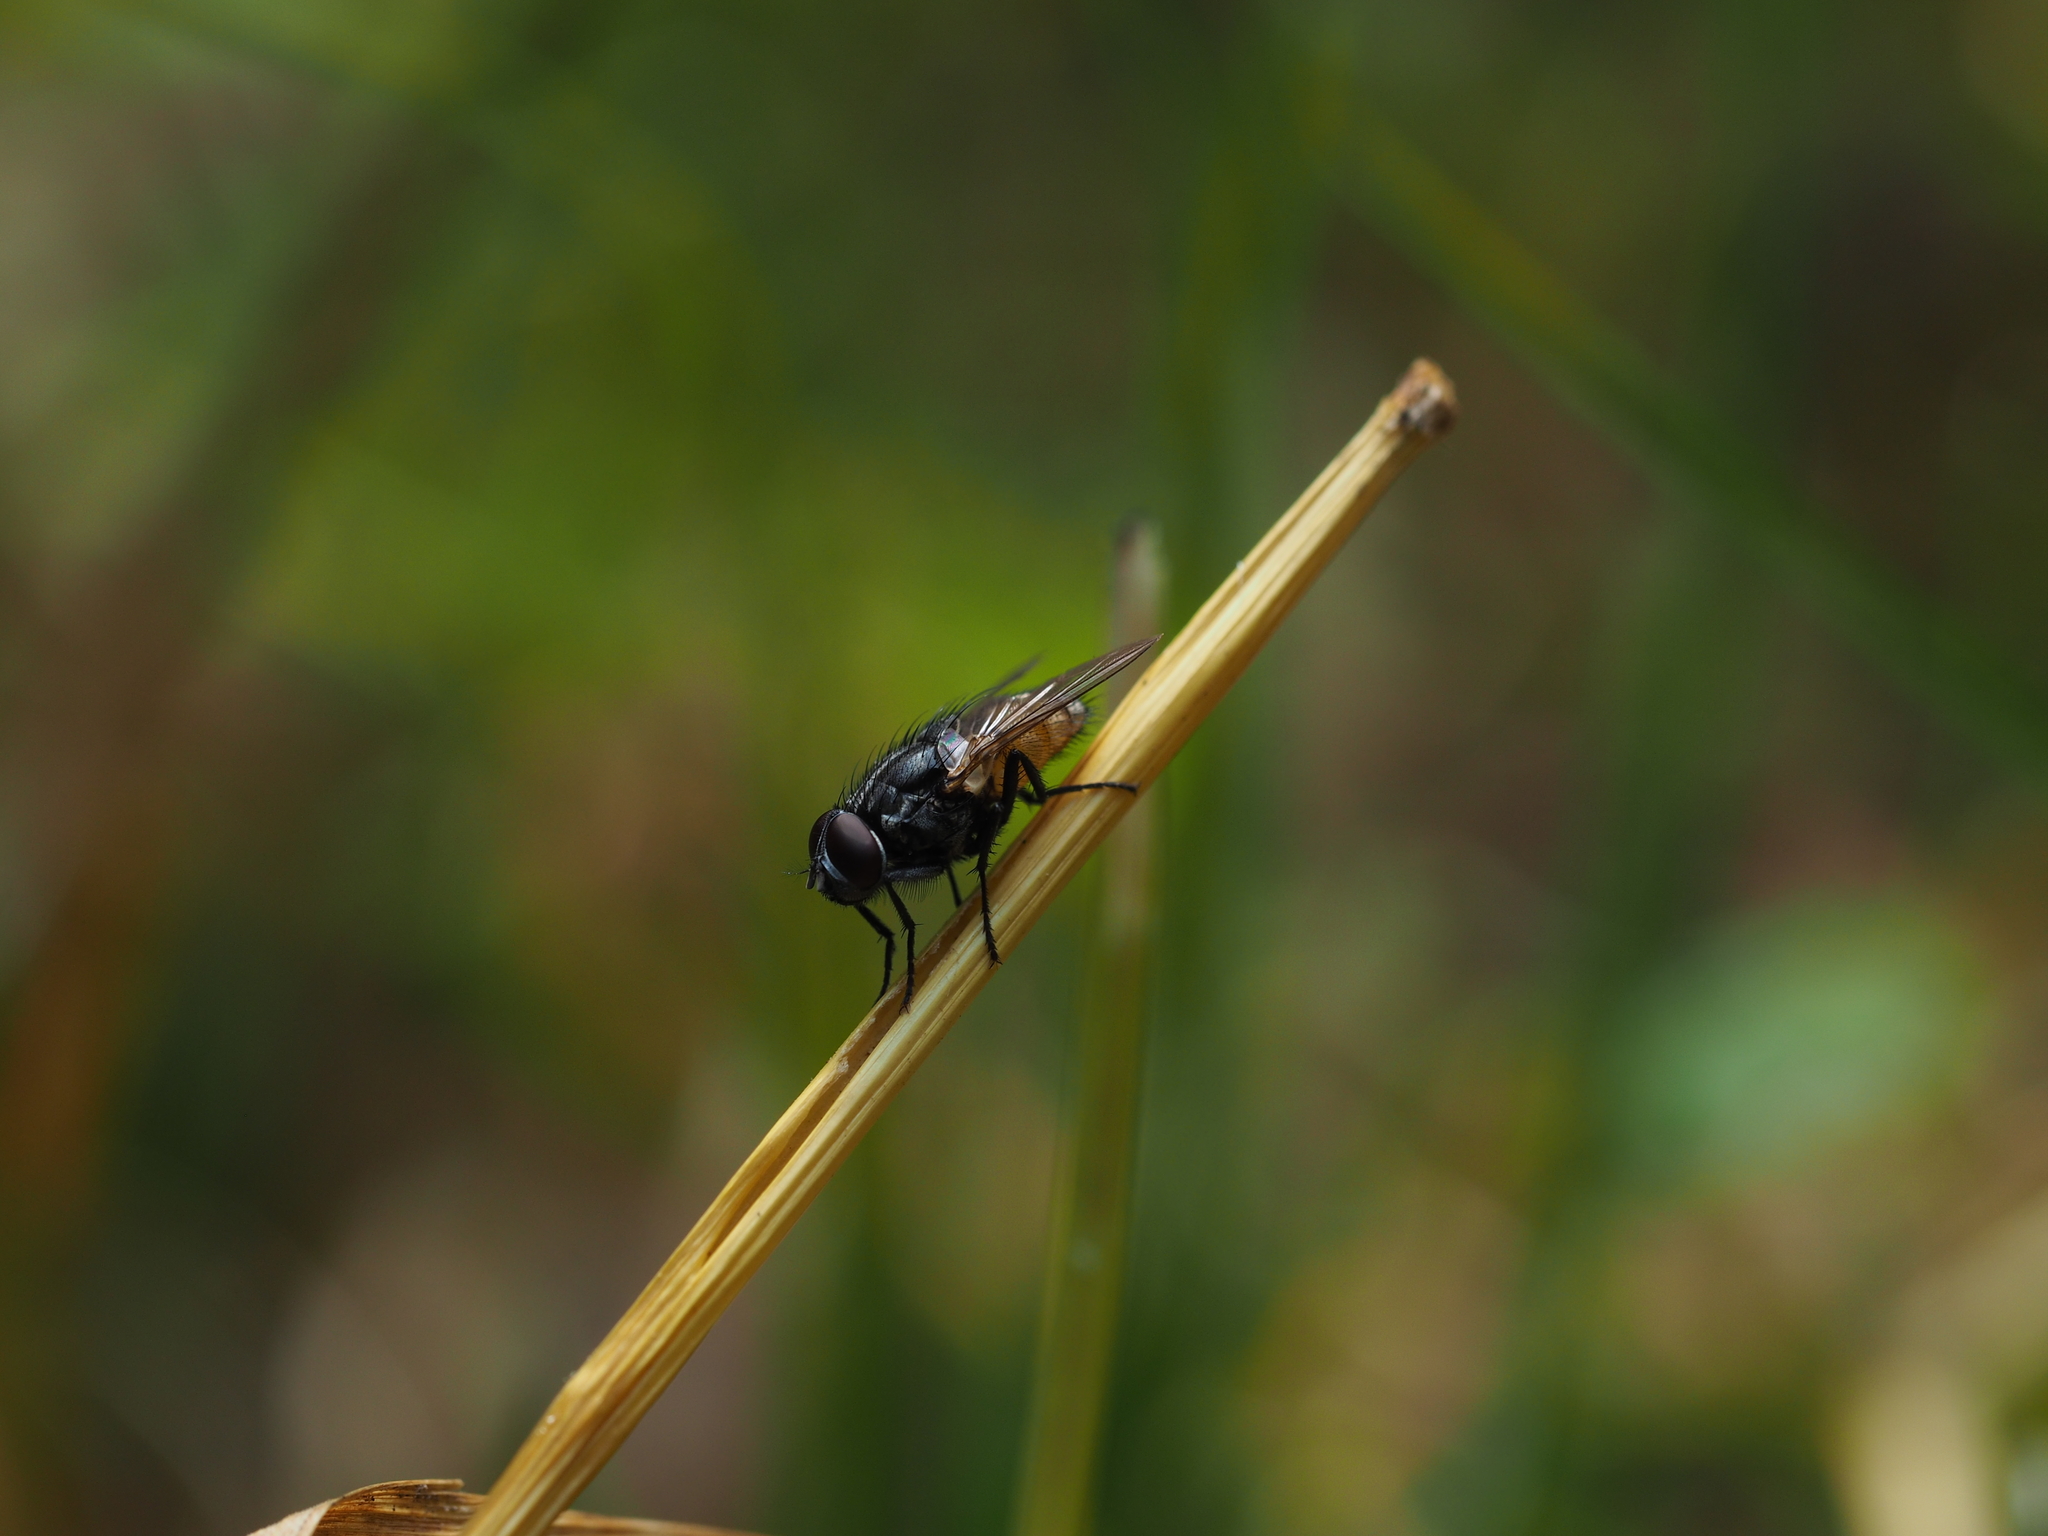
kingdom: Animalia
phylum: Arthropoda
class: Insecta
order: Diptera
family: Muscidae
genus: Musca
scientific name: Musca autumnalis
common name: Face fly
